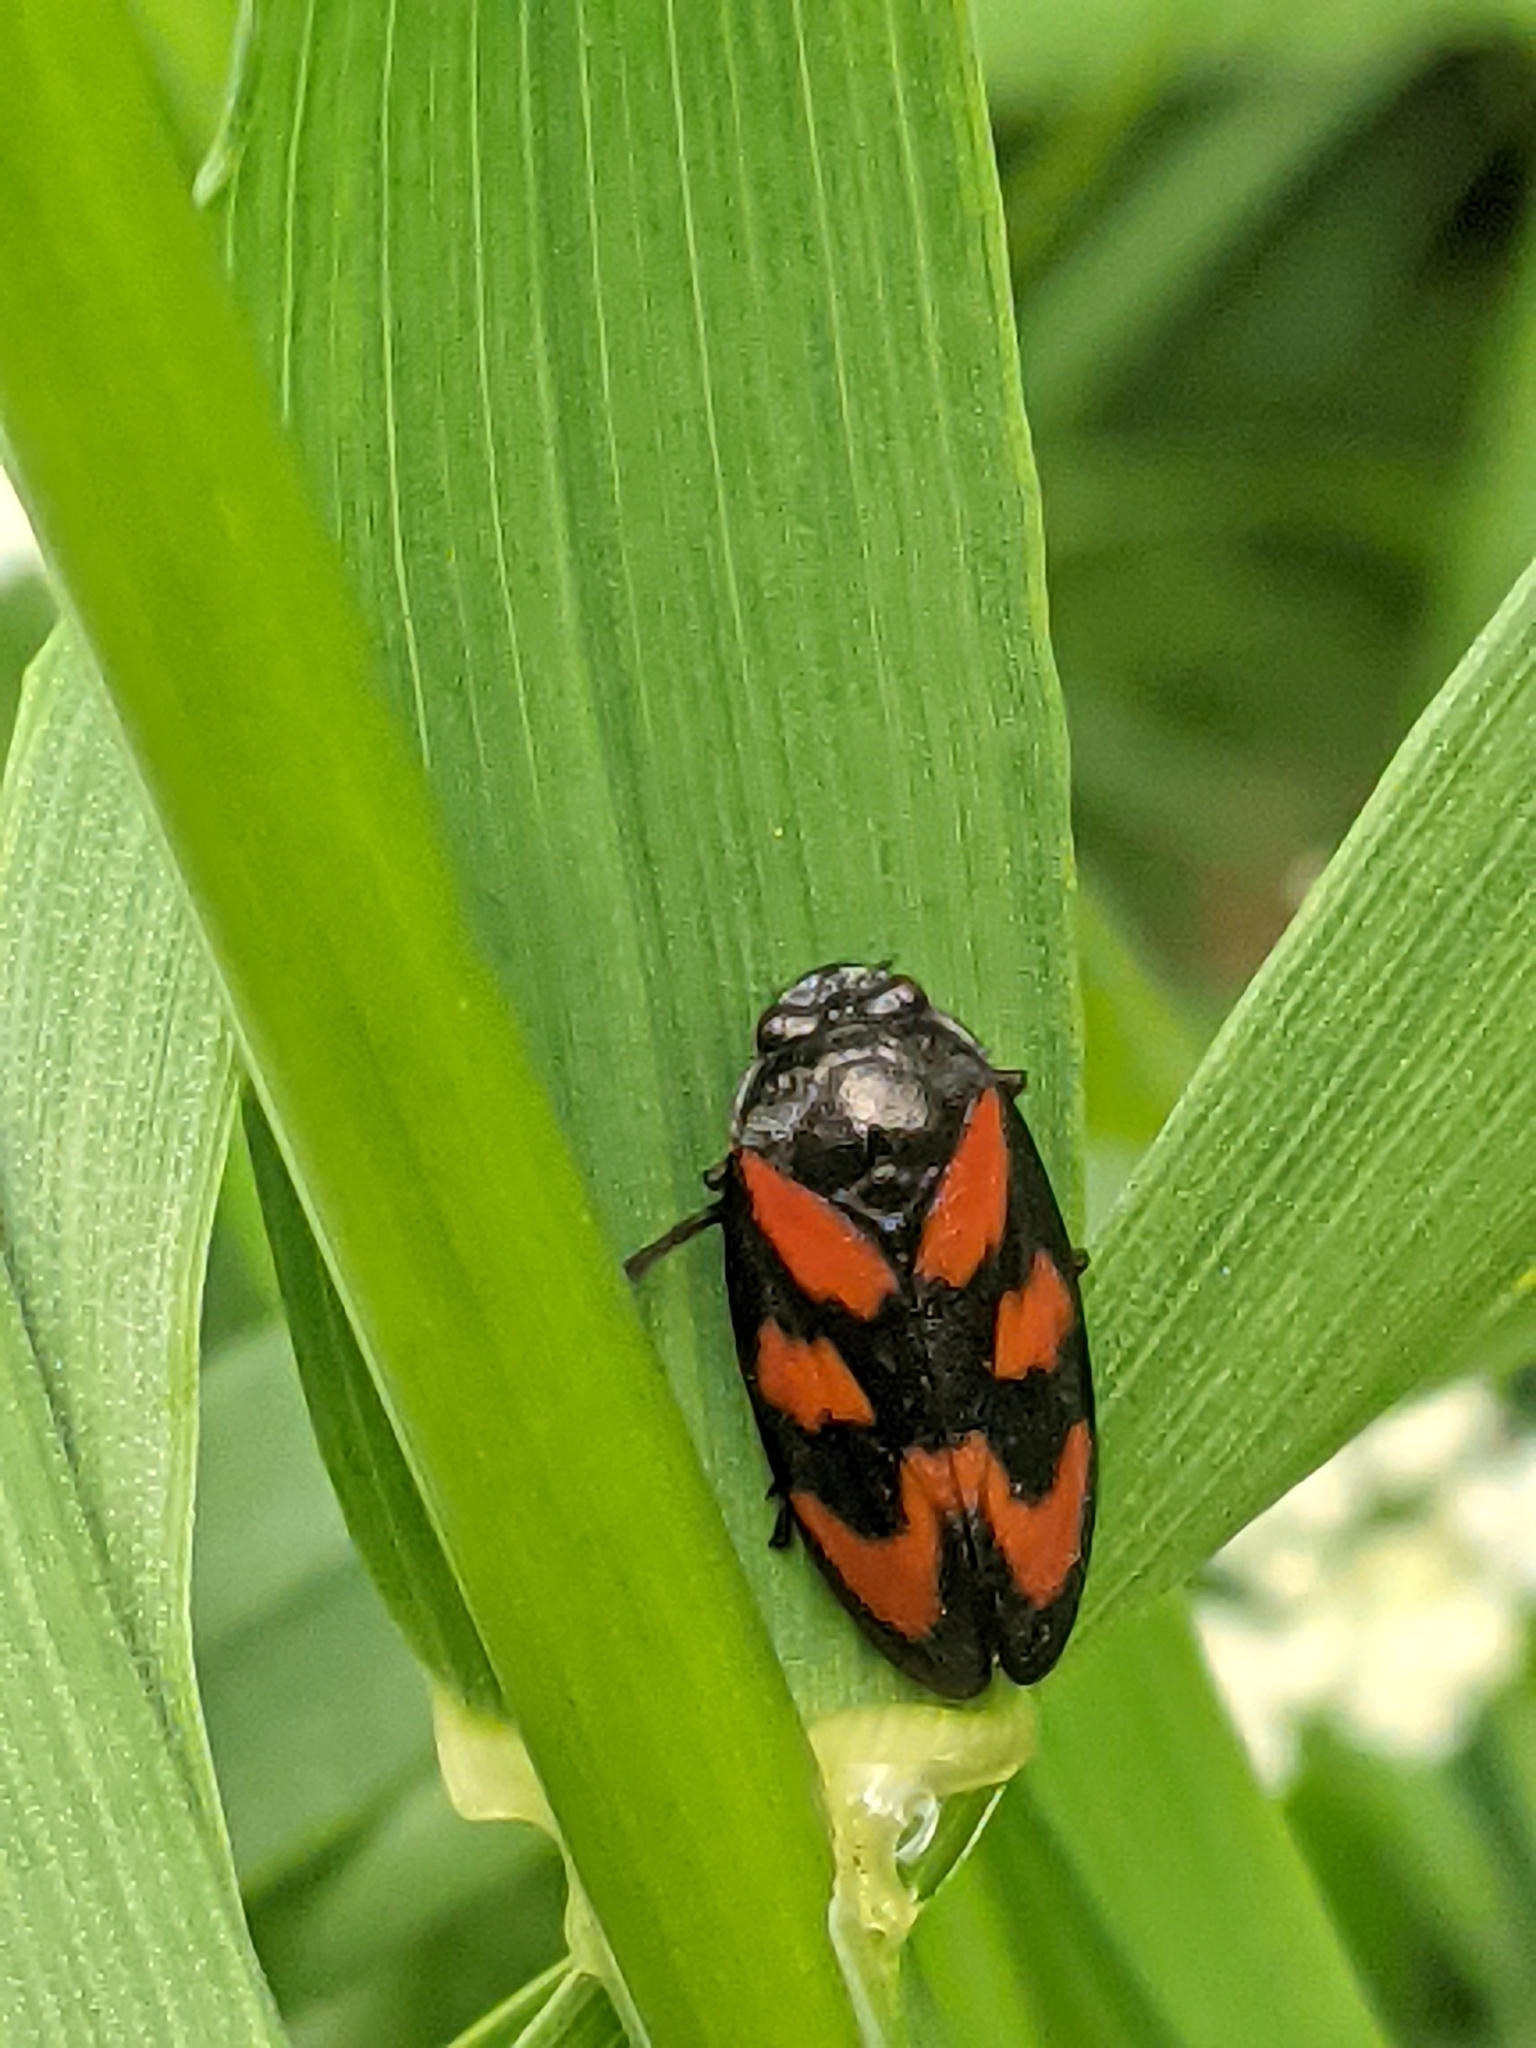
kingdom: Animalia
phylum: Arthropoda
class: Insecta
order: Hemiptera
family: Cercopidae
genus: Cercopis
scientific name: Cercopis vulnerata
